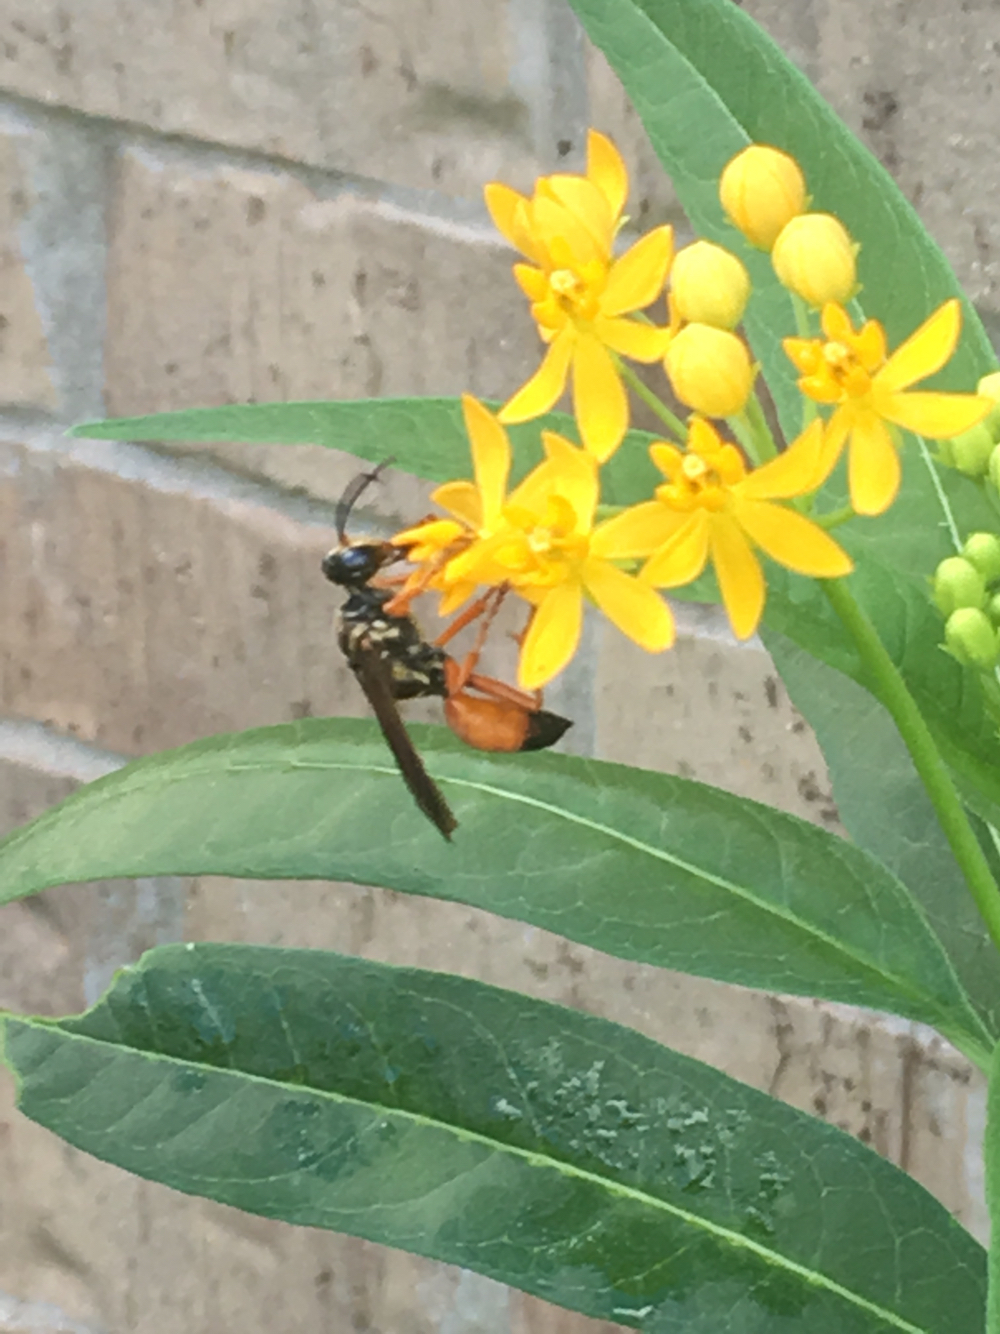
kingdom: Animalia
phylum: Arthropoda
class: Insecta
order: Hymenoptera
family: Sphecidae
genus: Sphex
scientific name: Sphex ichneumoneus
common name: Great golden digger wasp
